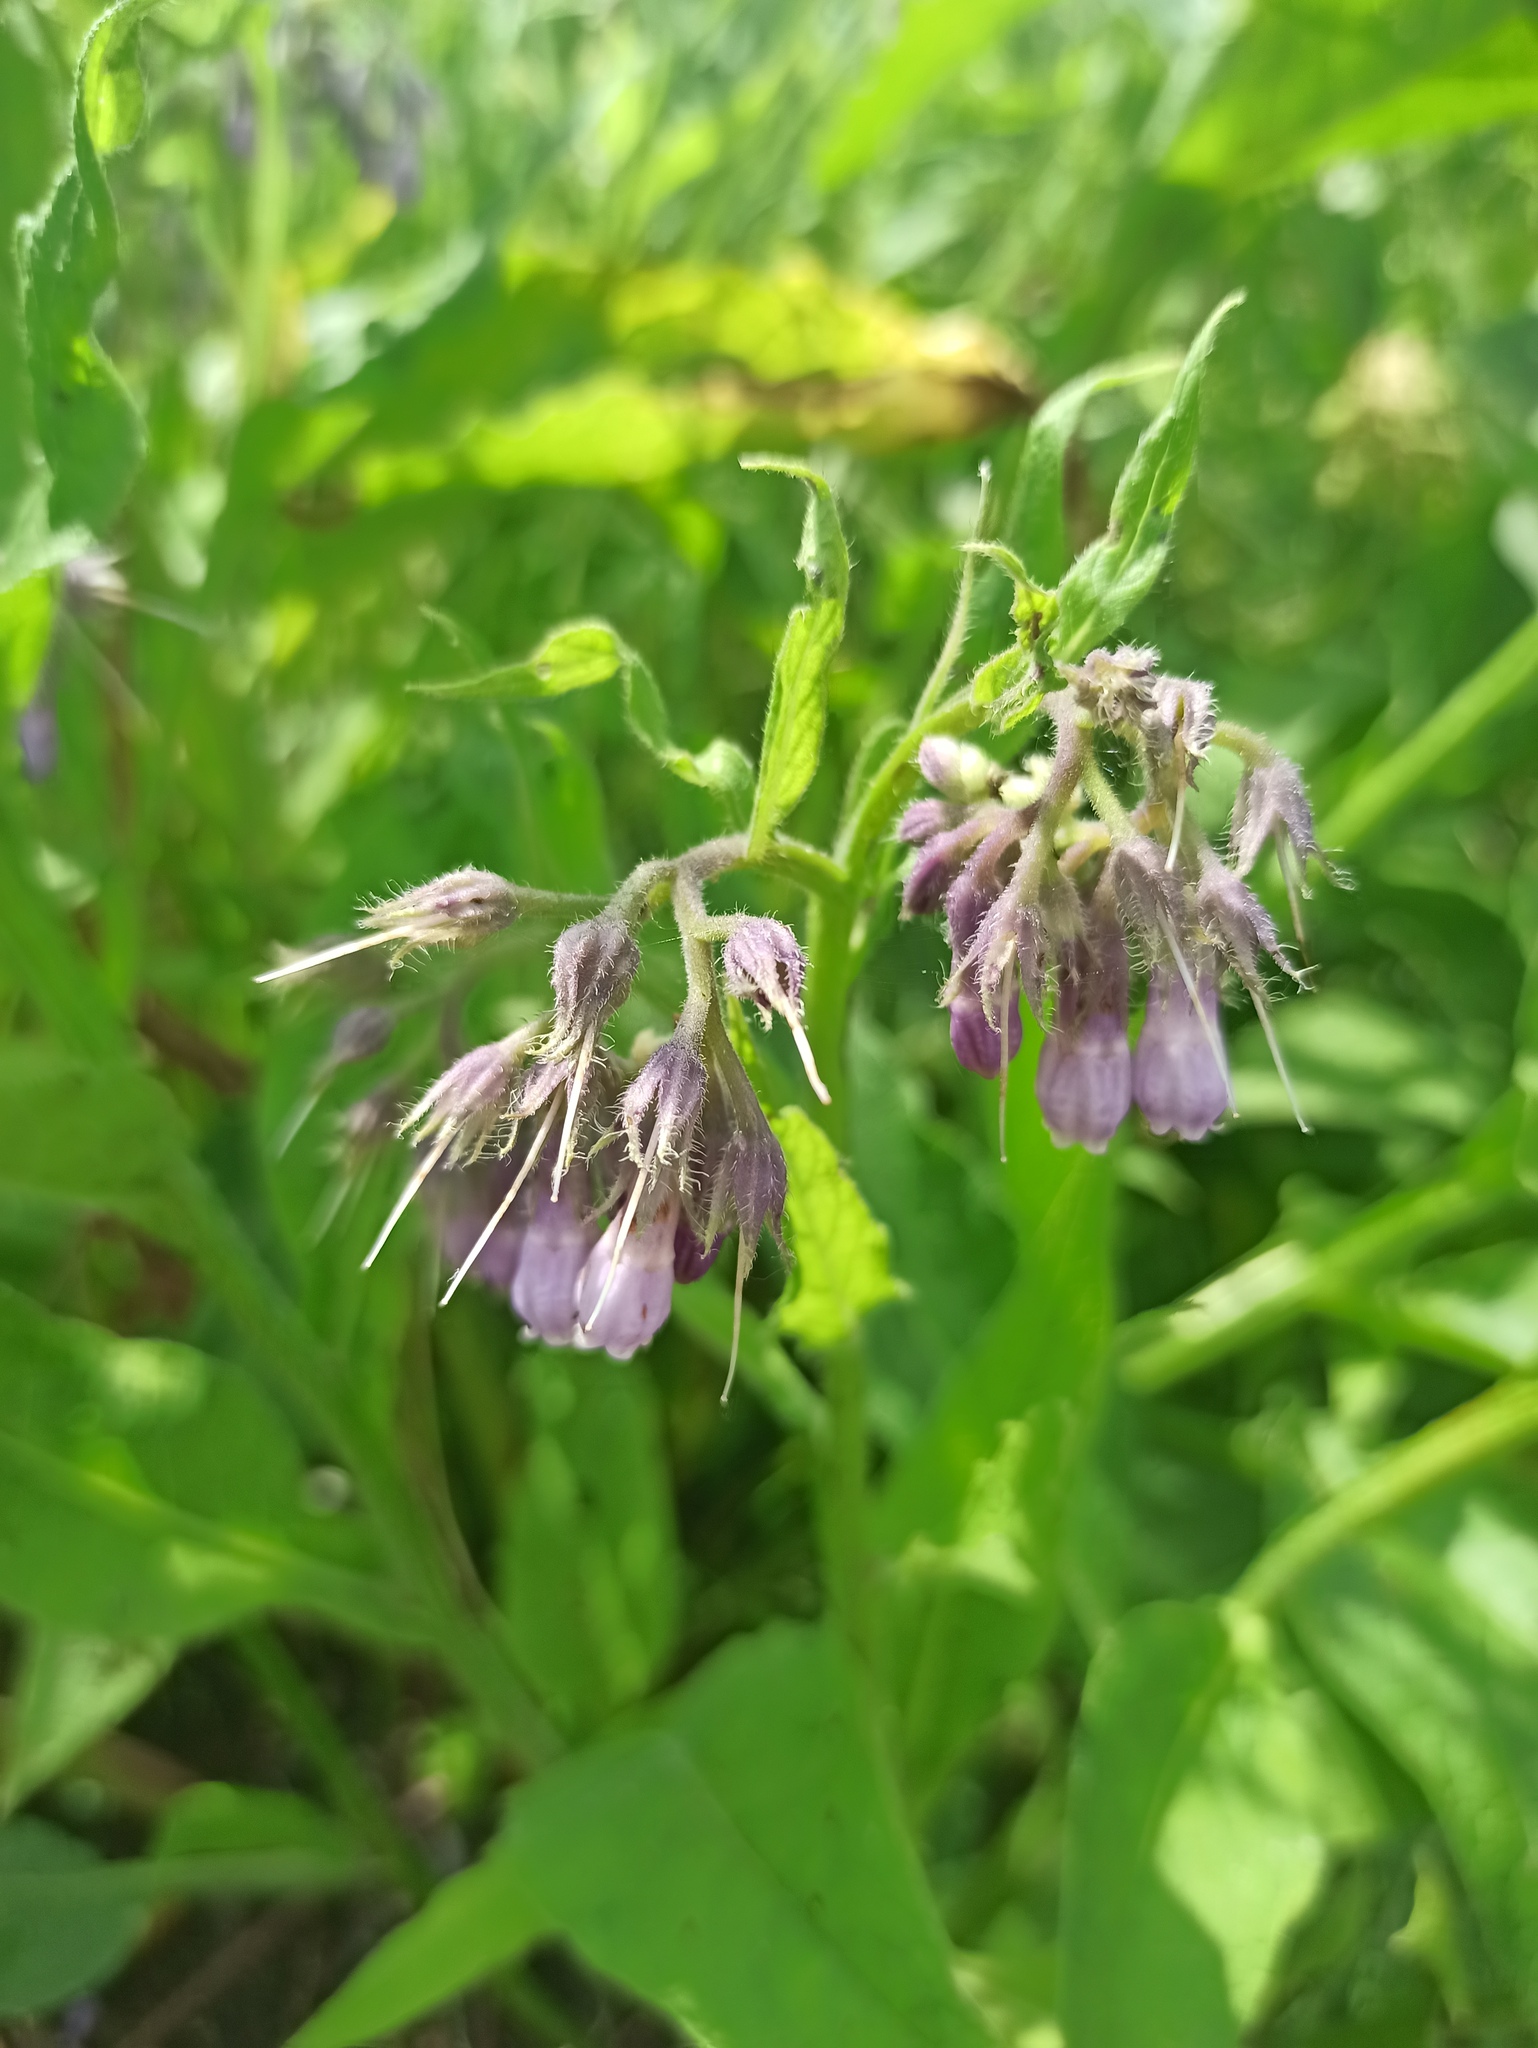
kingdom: Plantae
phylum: Tracheophyta
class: Magnoliopsida
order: Boraginales
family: Boraginaceae
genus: Symphytum
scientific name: Symphytum officinale
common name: Common comfrey
